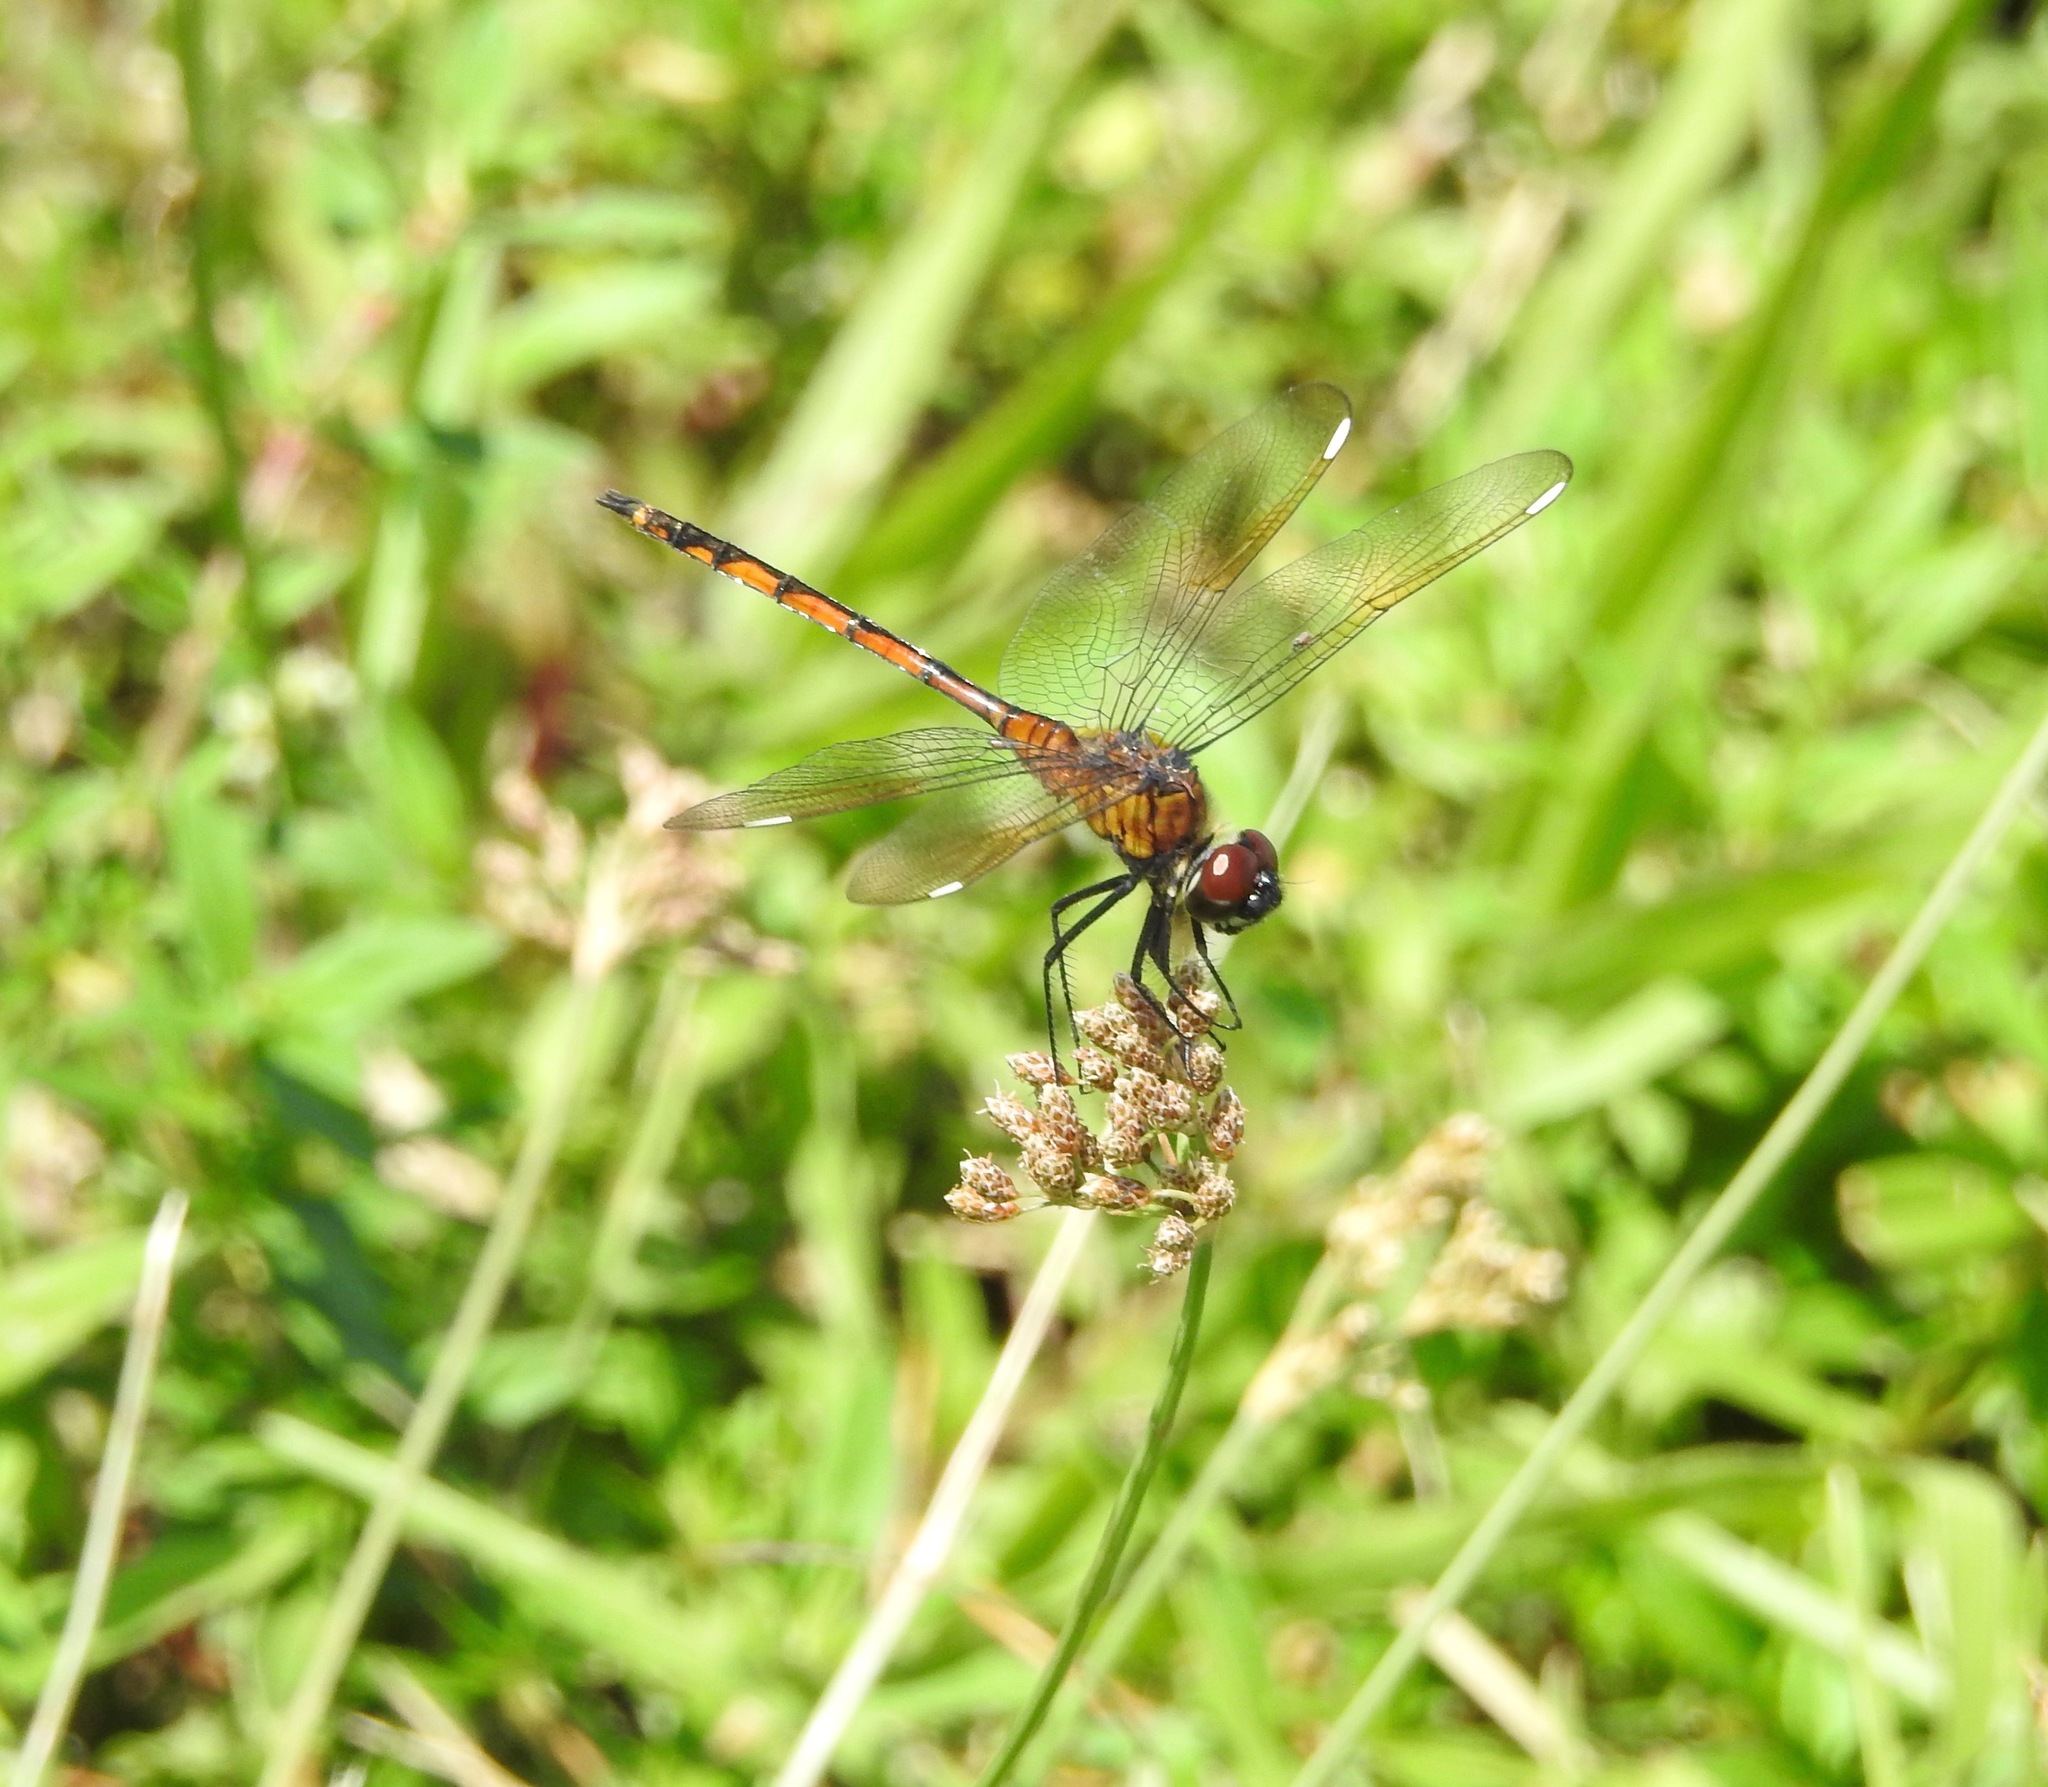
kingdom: Animalia
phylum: Arthropoda
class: Insecta
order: Odonata
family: Libellulidae
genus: Brachymesia
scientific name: Brachymesia gravida
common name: Four-spotted pennant
